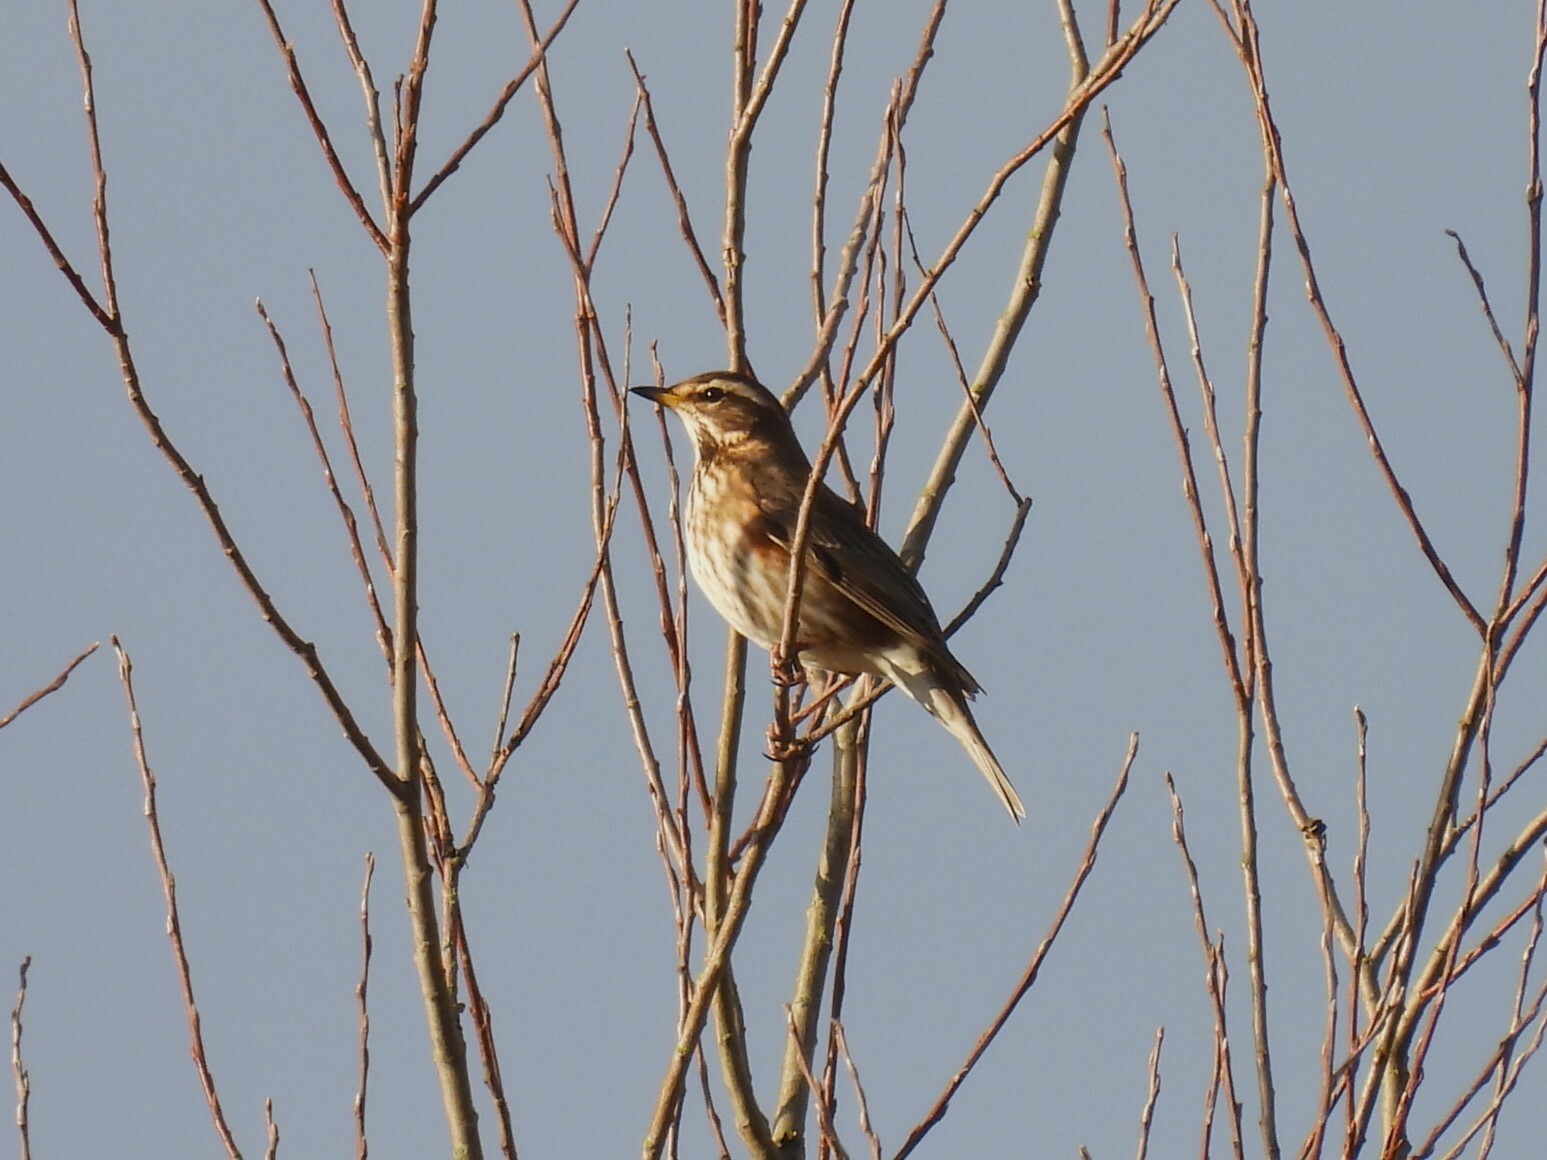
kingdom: Animalia
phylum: Chordata
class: Aves
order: Passeriformes
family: Turdidae
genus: Turdus
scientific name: Turdus iliacus
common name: Redwing
